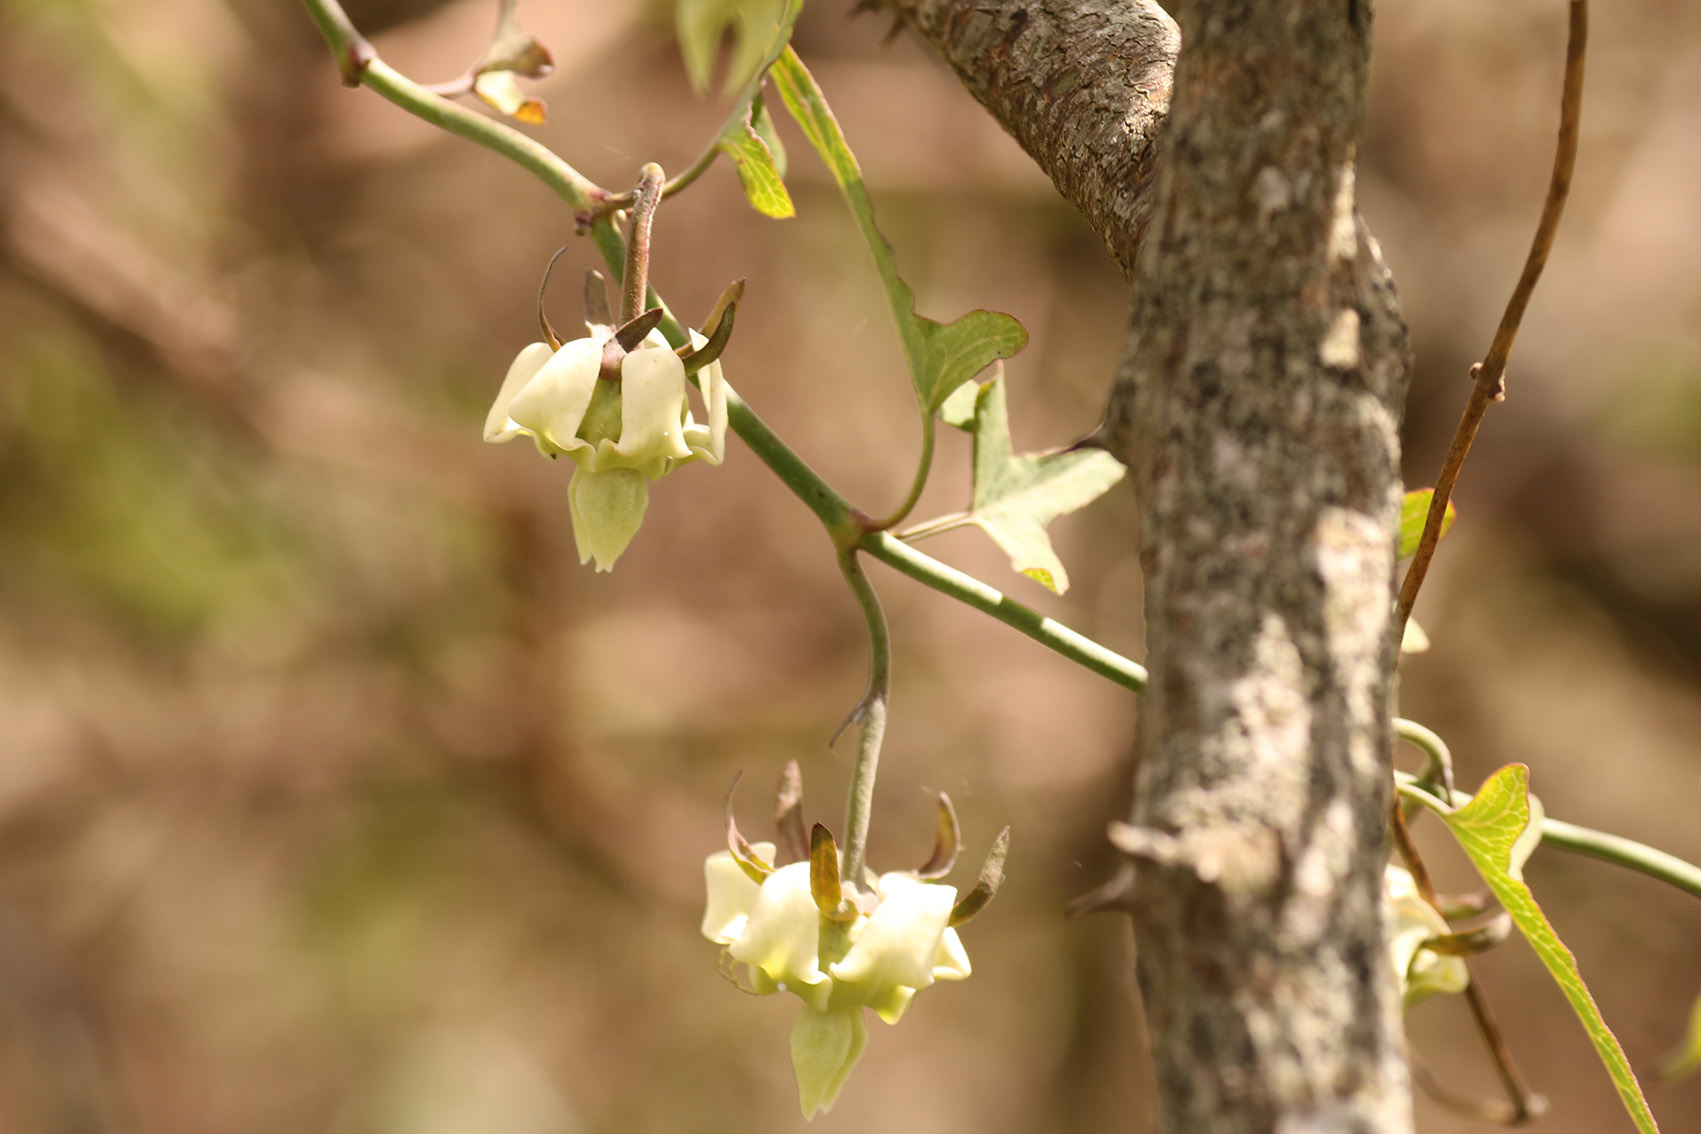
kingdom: Plantae
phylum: Tracheophyta
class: Magnoliopsida
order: Gentianales
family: Apocynaceae
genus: Araujia
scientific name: Araujia angustifolia
